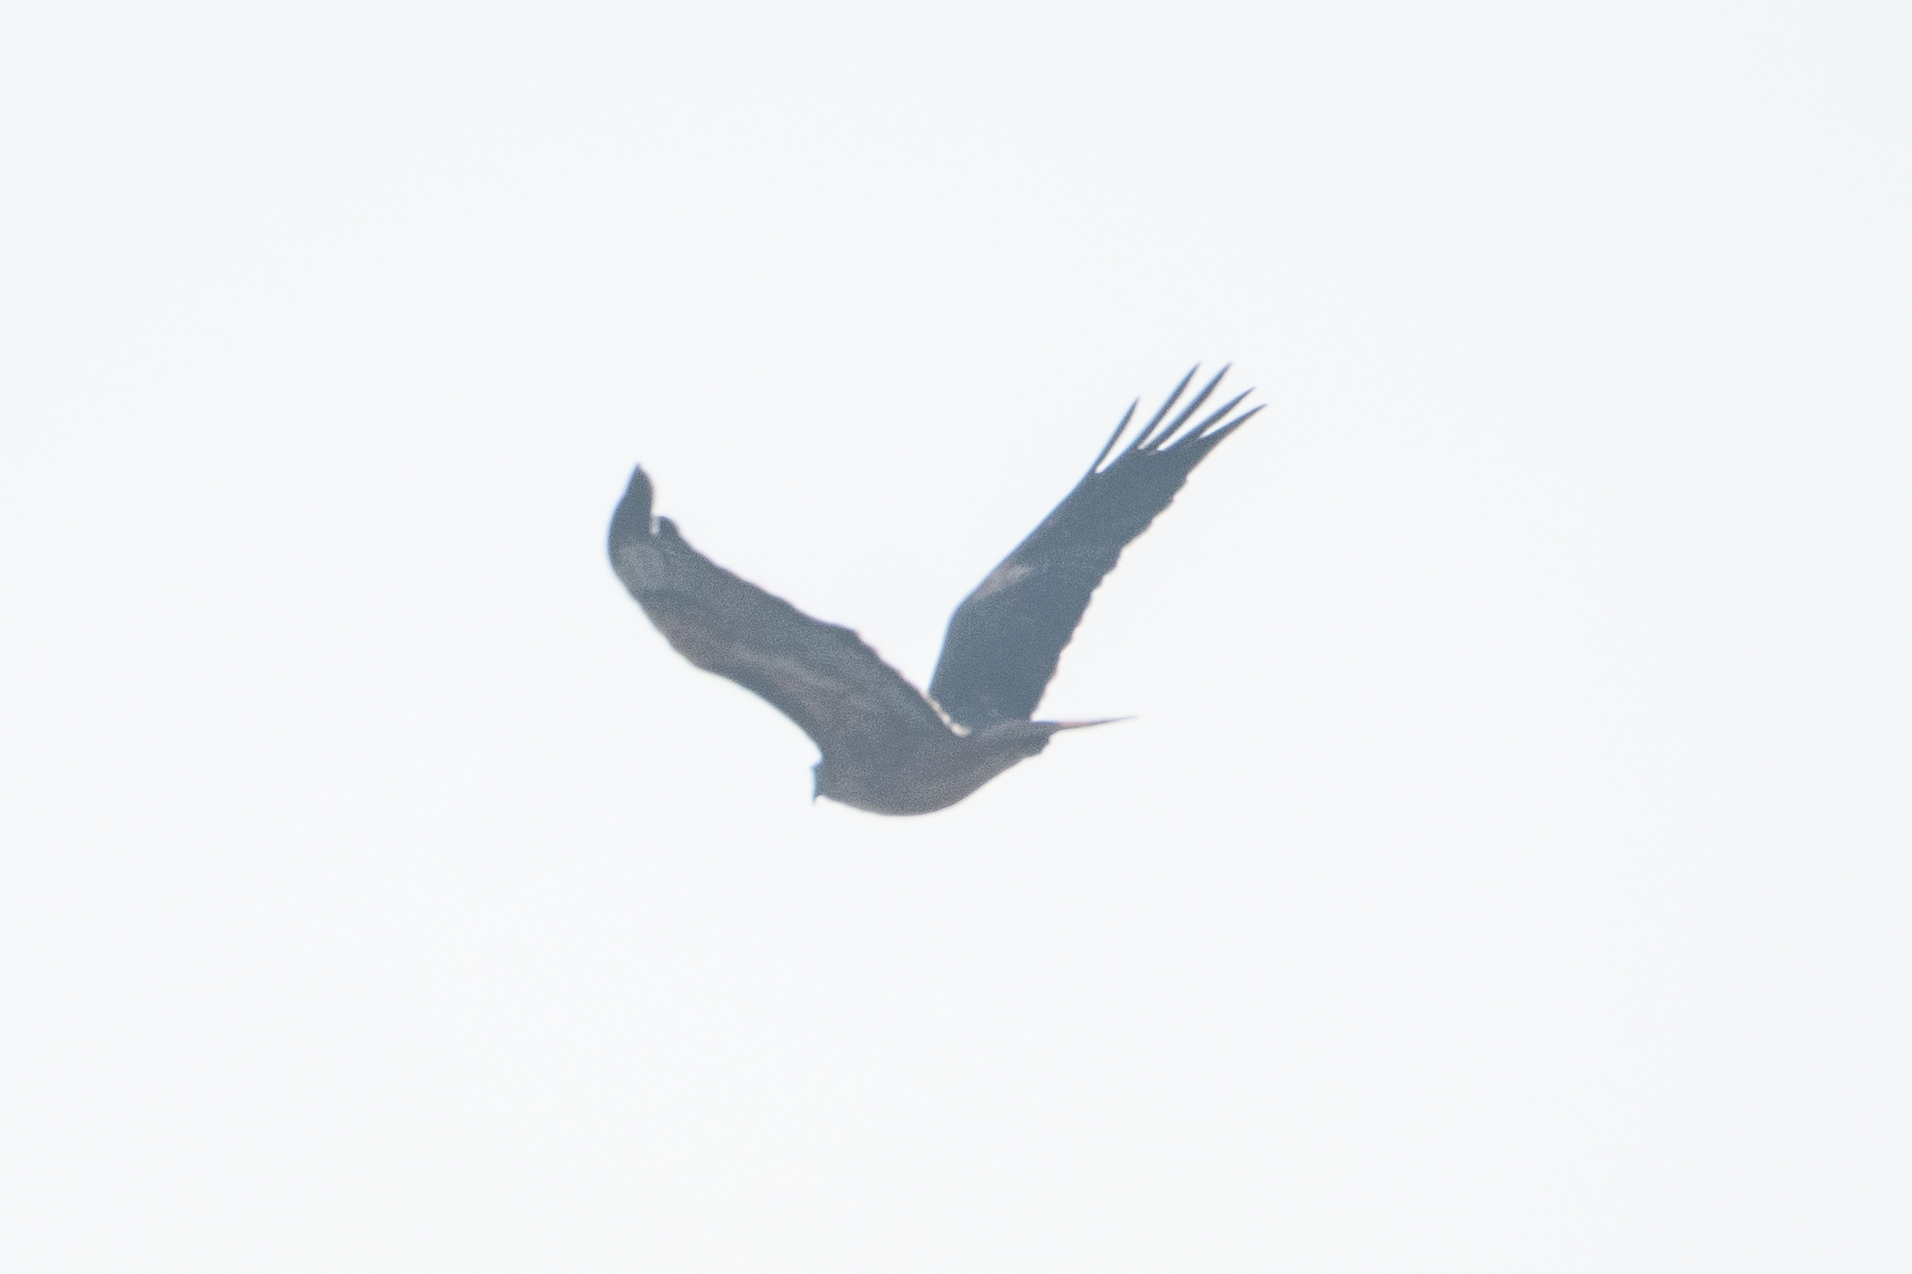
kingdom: Animalia
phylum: Chordata
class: Aves
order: Accipitriformes
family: Accipitridae
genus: Buteo
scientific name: Buteo jamaicensis
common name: Red-tailed hawk
